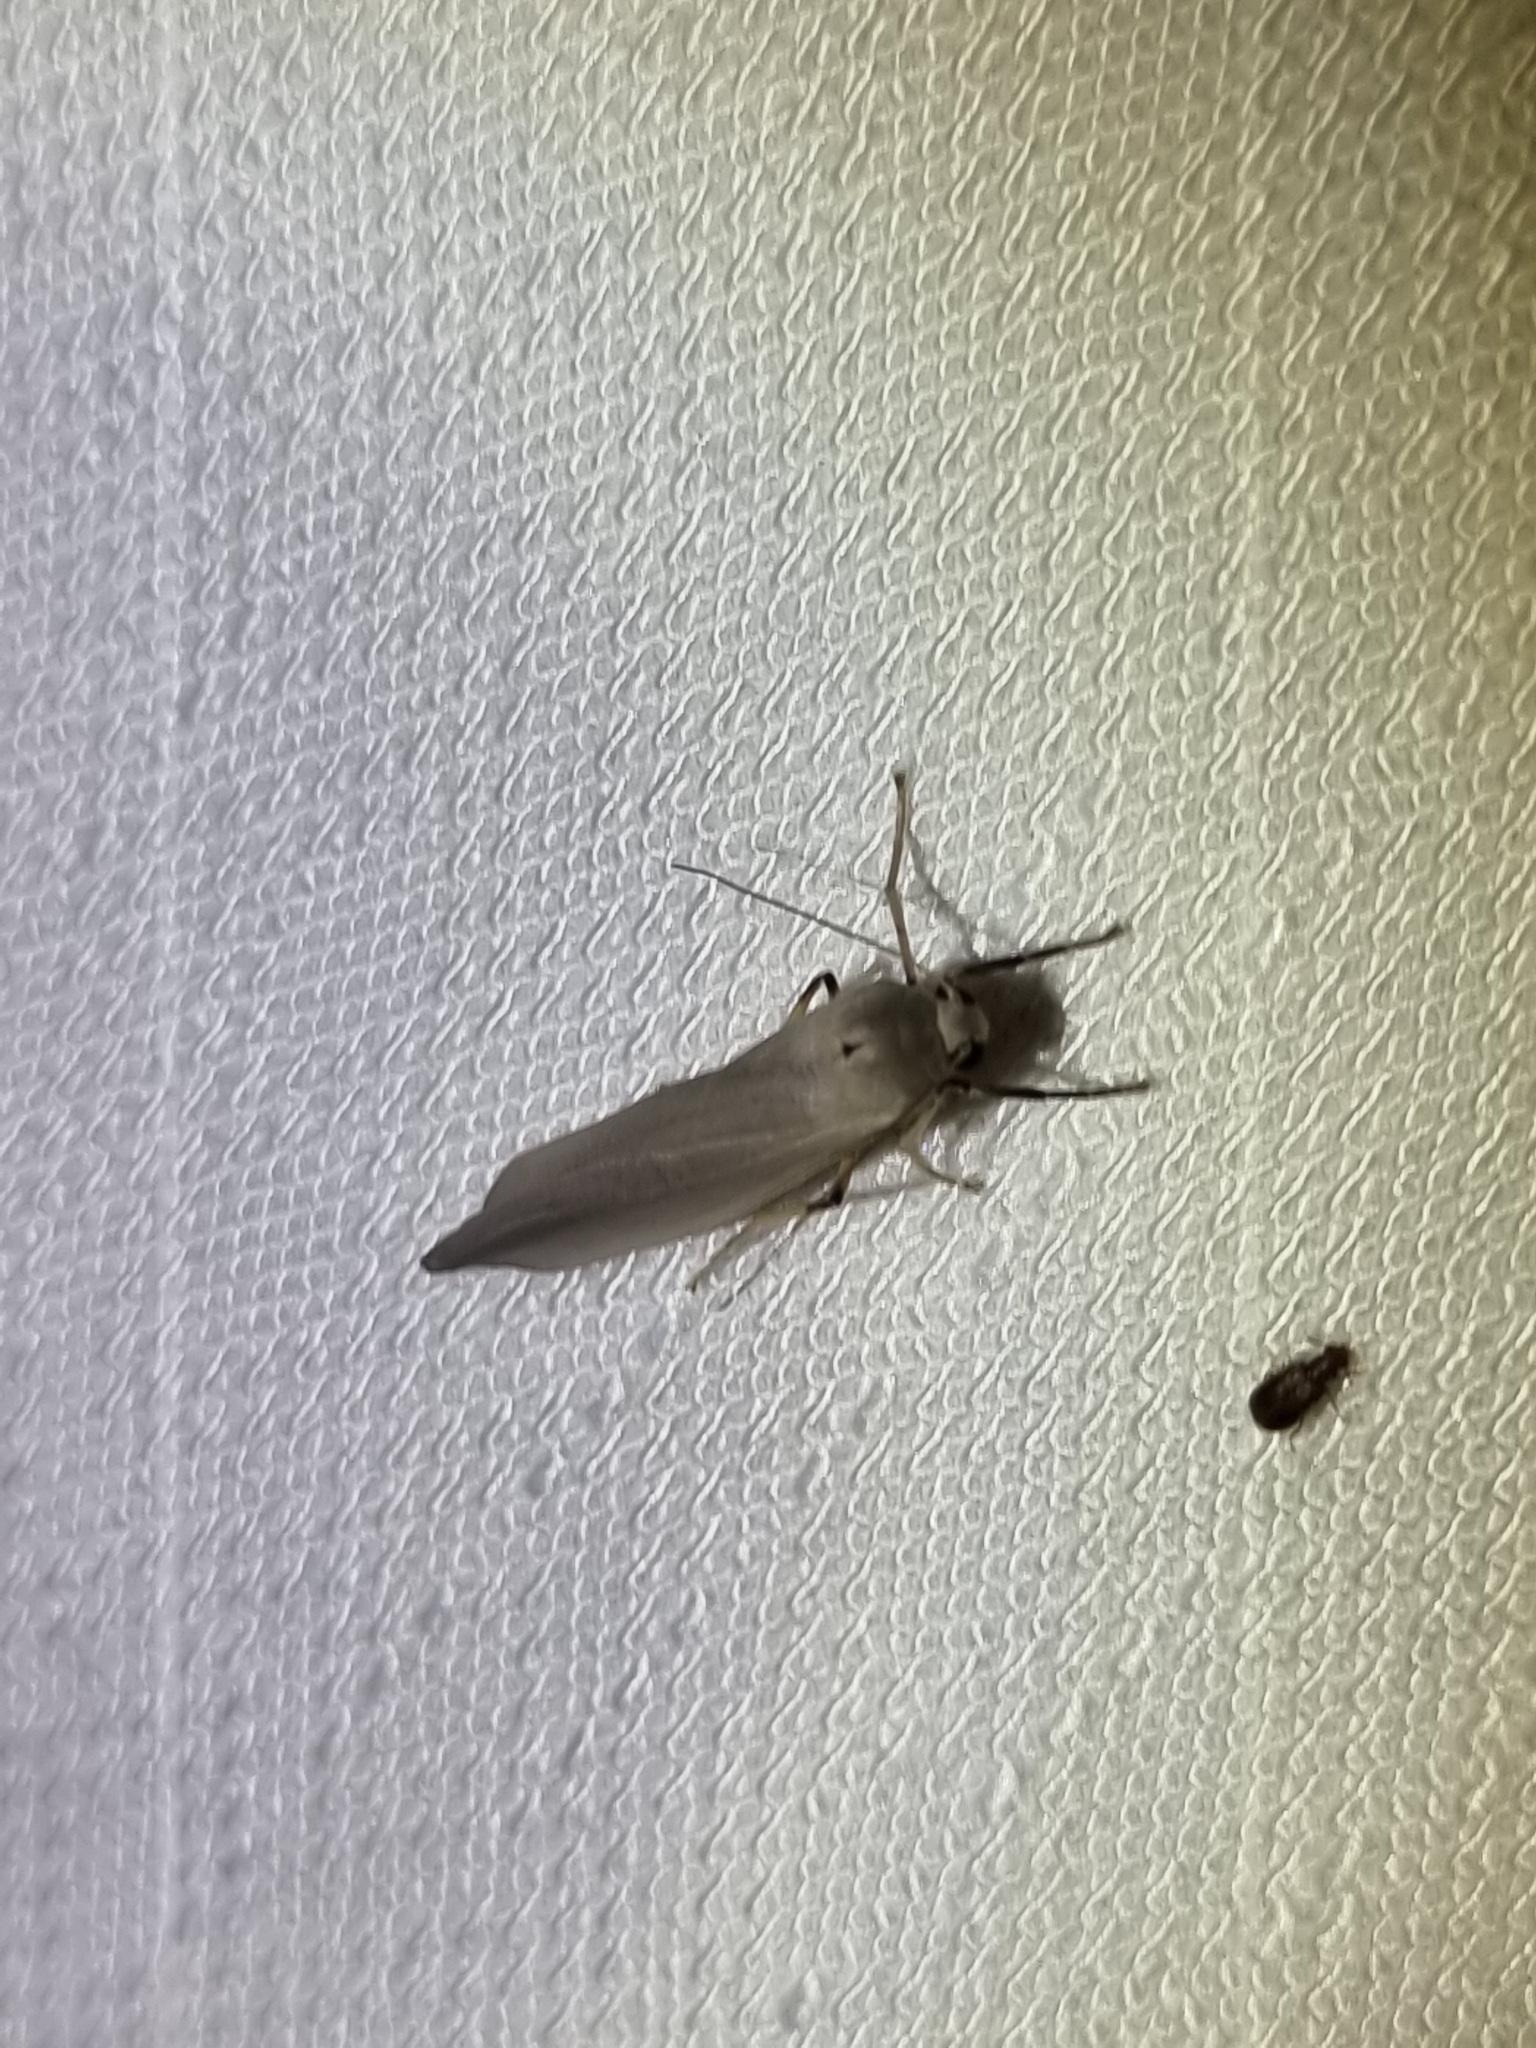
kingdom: Animalia
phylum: Arthropoda
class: Insecta
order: Lepidoptera
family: Erebidae
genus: Calamidia
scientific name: Calamidia hirta
